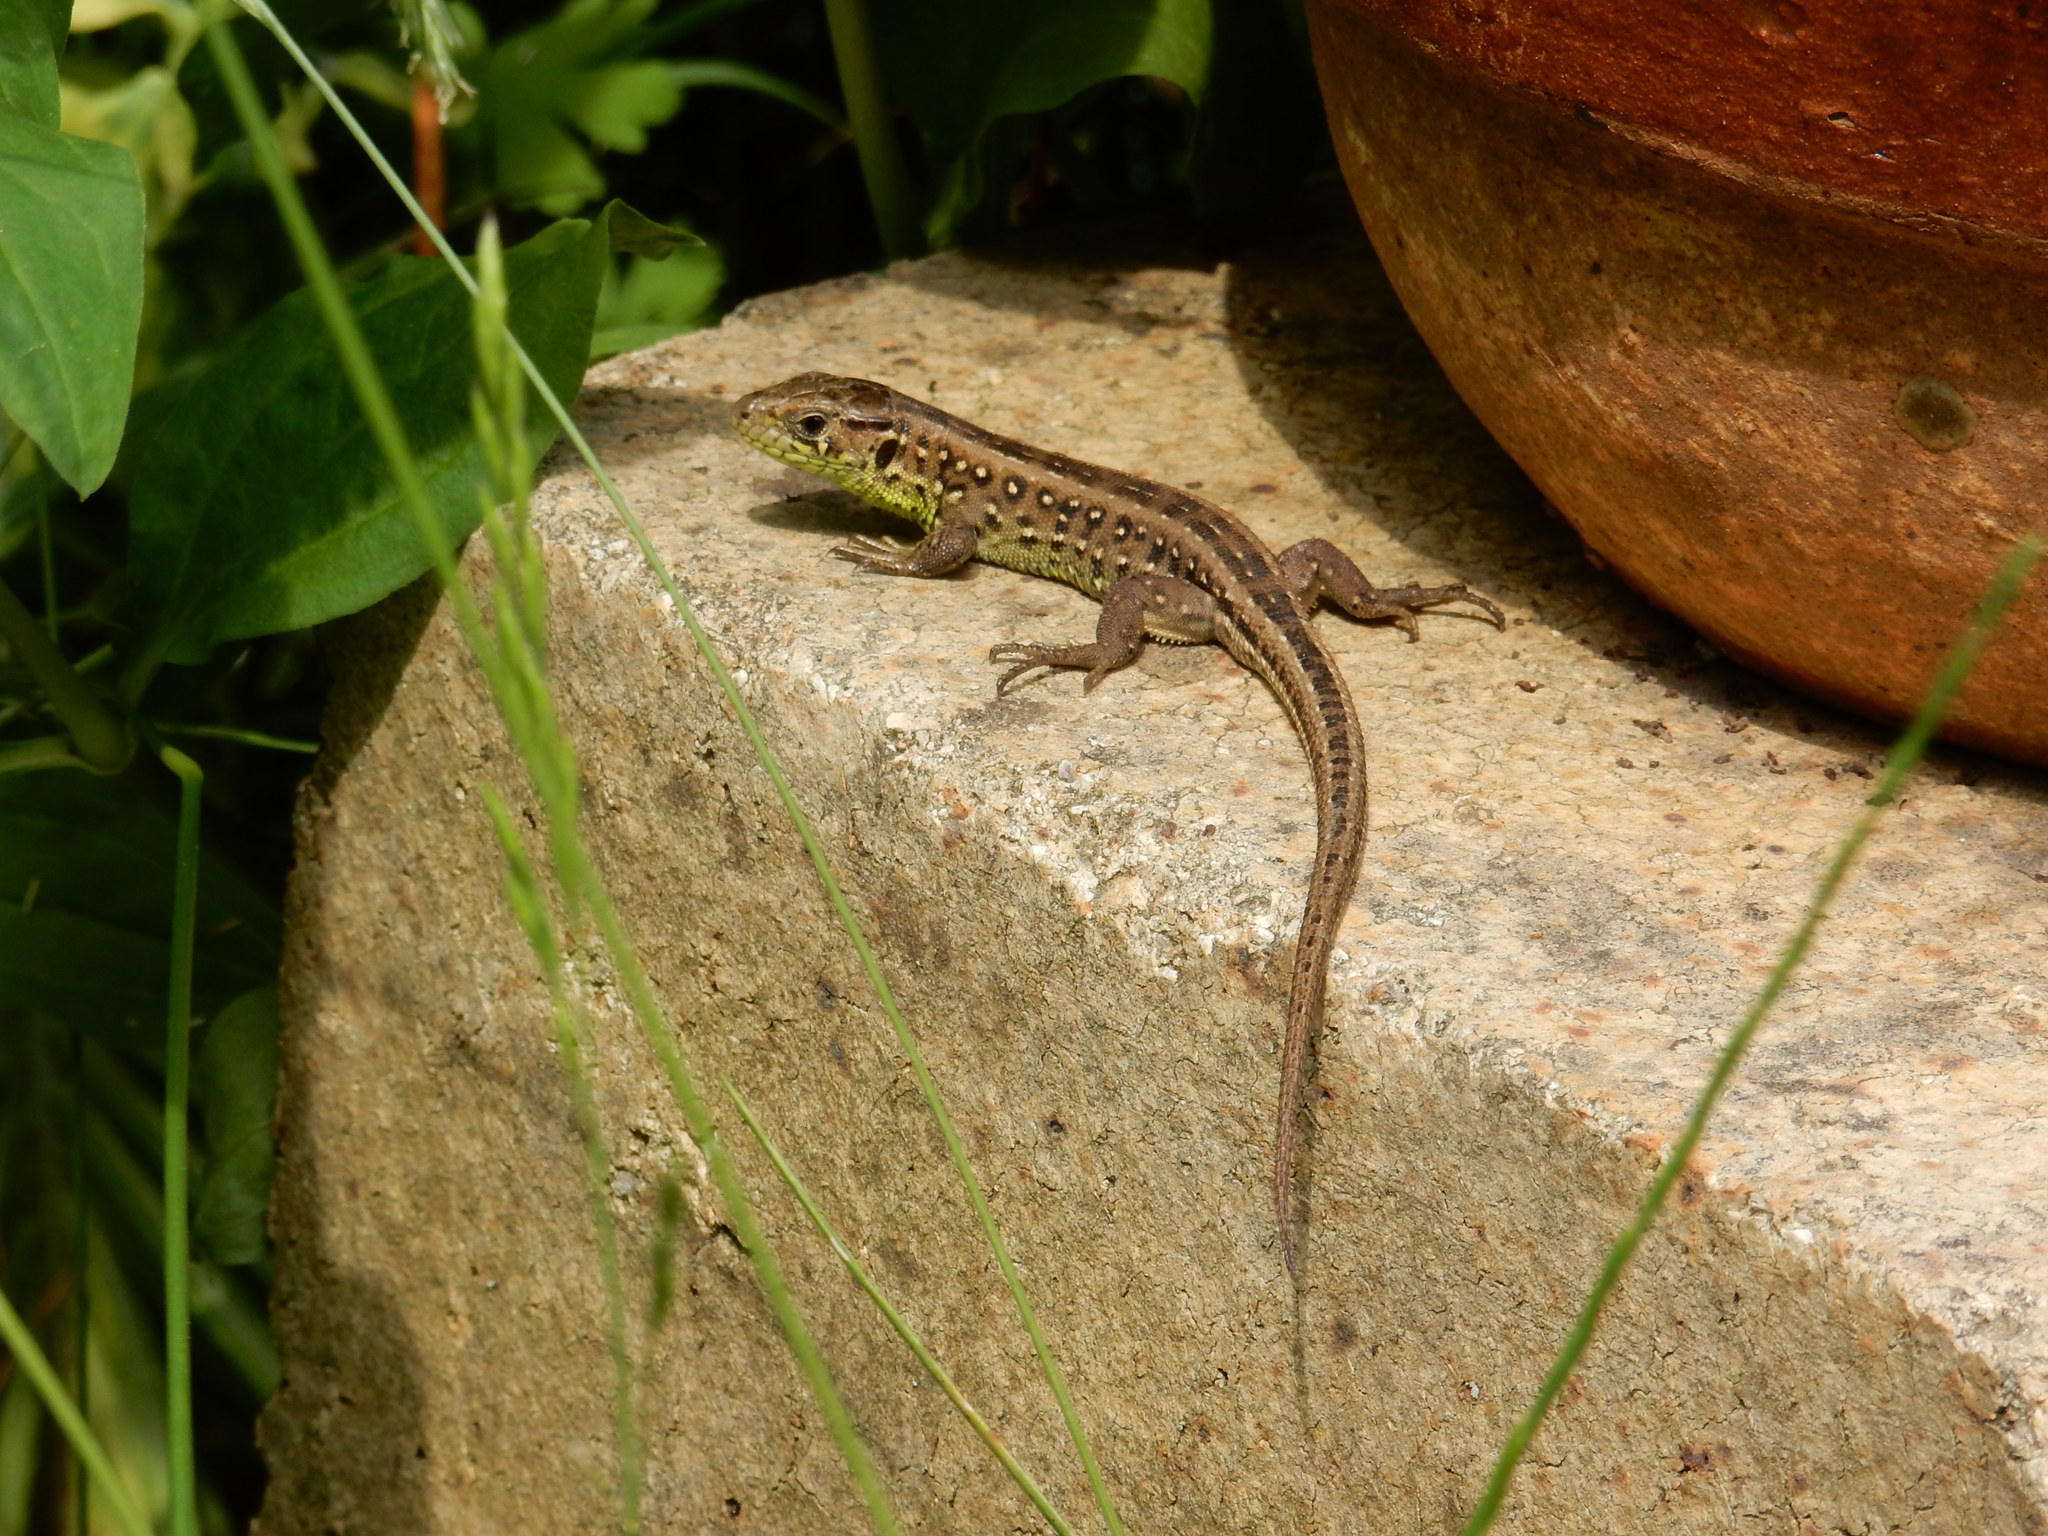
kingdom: Animalia
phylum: Chordata
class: Squamata
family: Lacertidae
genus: Lacerta
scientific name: Lacerta agilis
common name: Sand lizard
